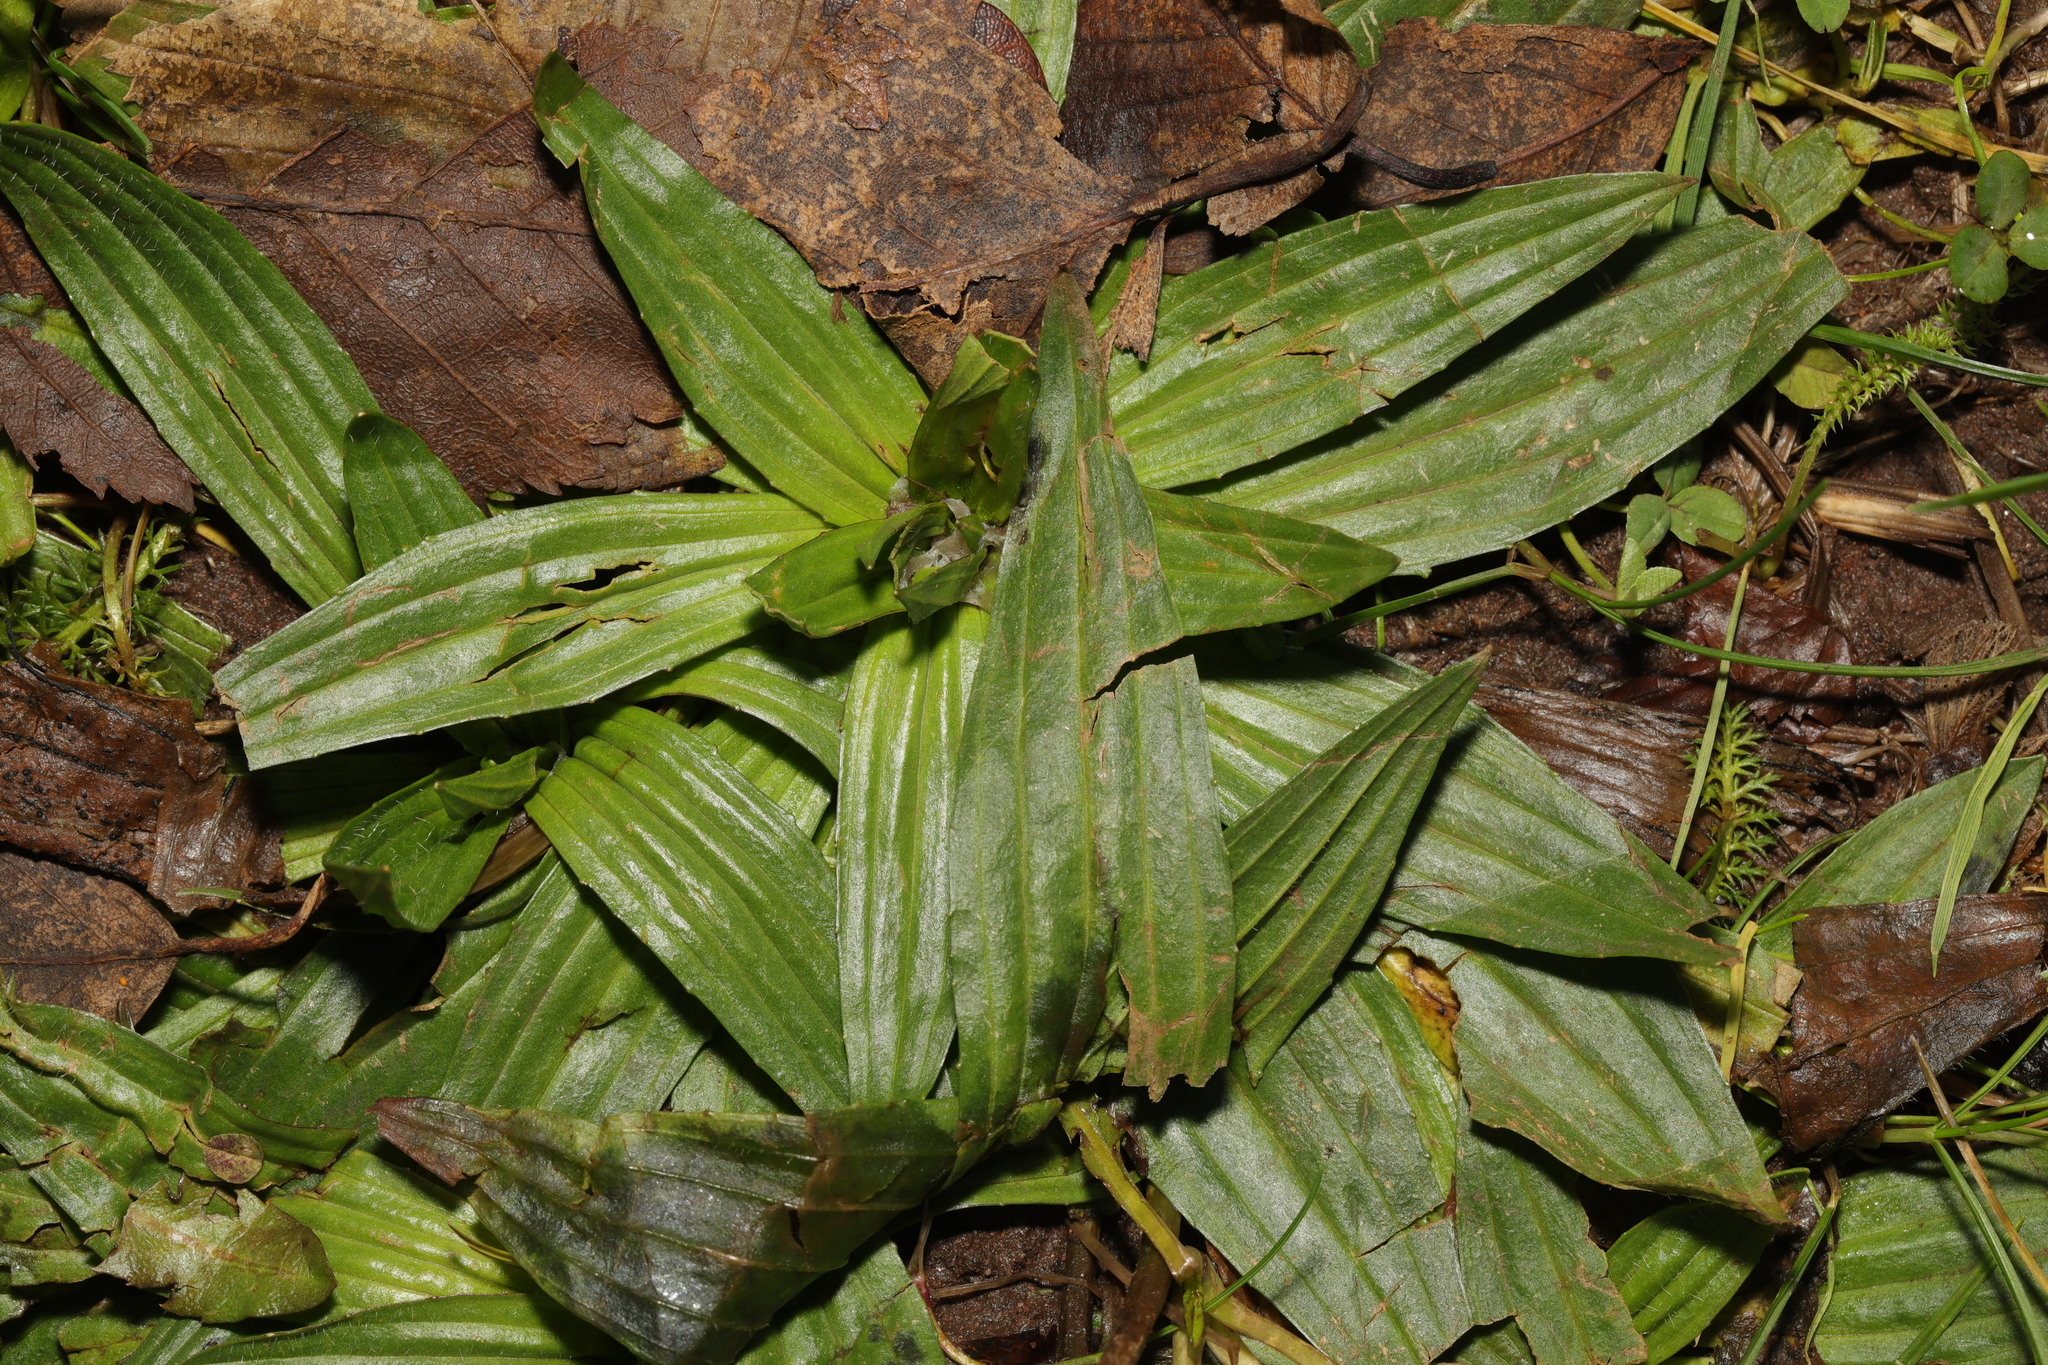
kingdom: Plantae
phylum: Tracheophyta
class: Magnoliopsida
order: Lamiales
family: Plantaginaceae
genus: Plantago
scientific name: Plantago lanceolata
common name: Ribwort plantain
